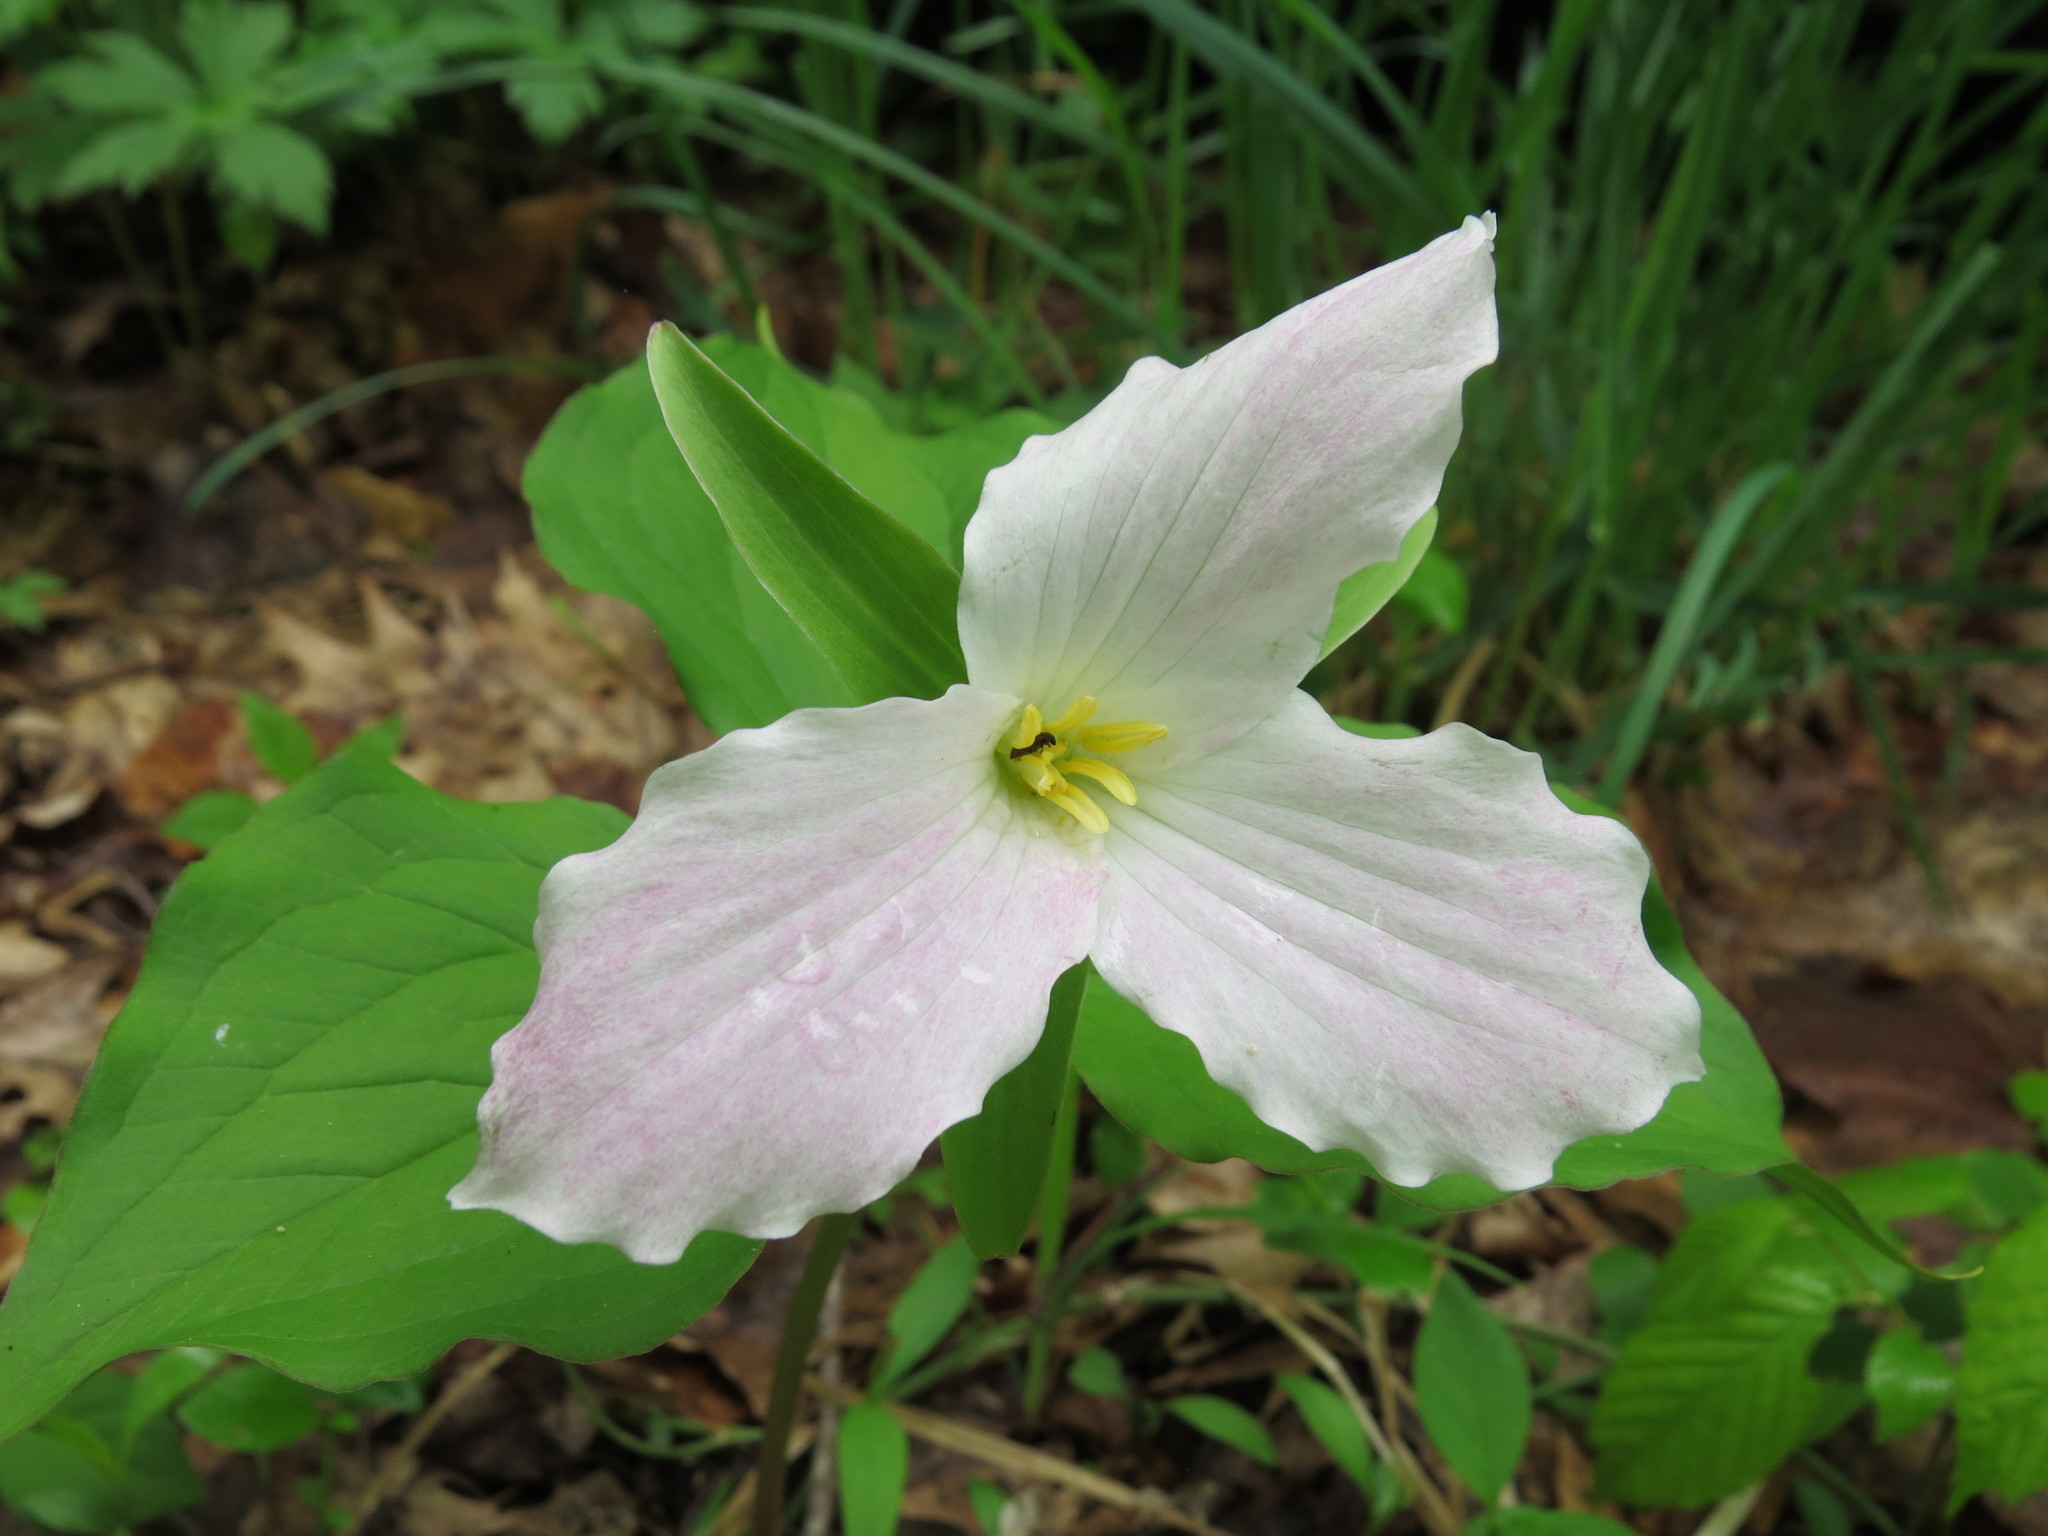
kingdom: Plantae
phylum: Tracheophyta
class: Liliopsida
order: Liliales
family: Melanthiaceae
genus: Trillium
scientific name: Trillium grandiflorum
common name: Great white trillium
